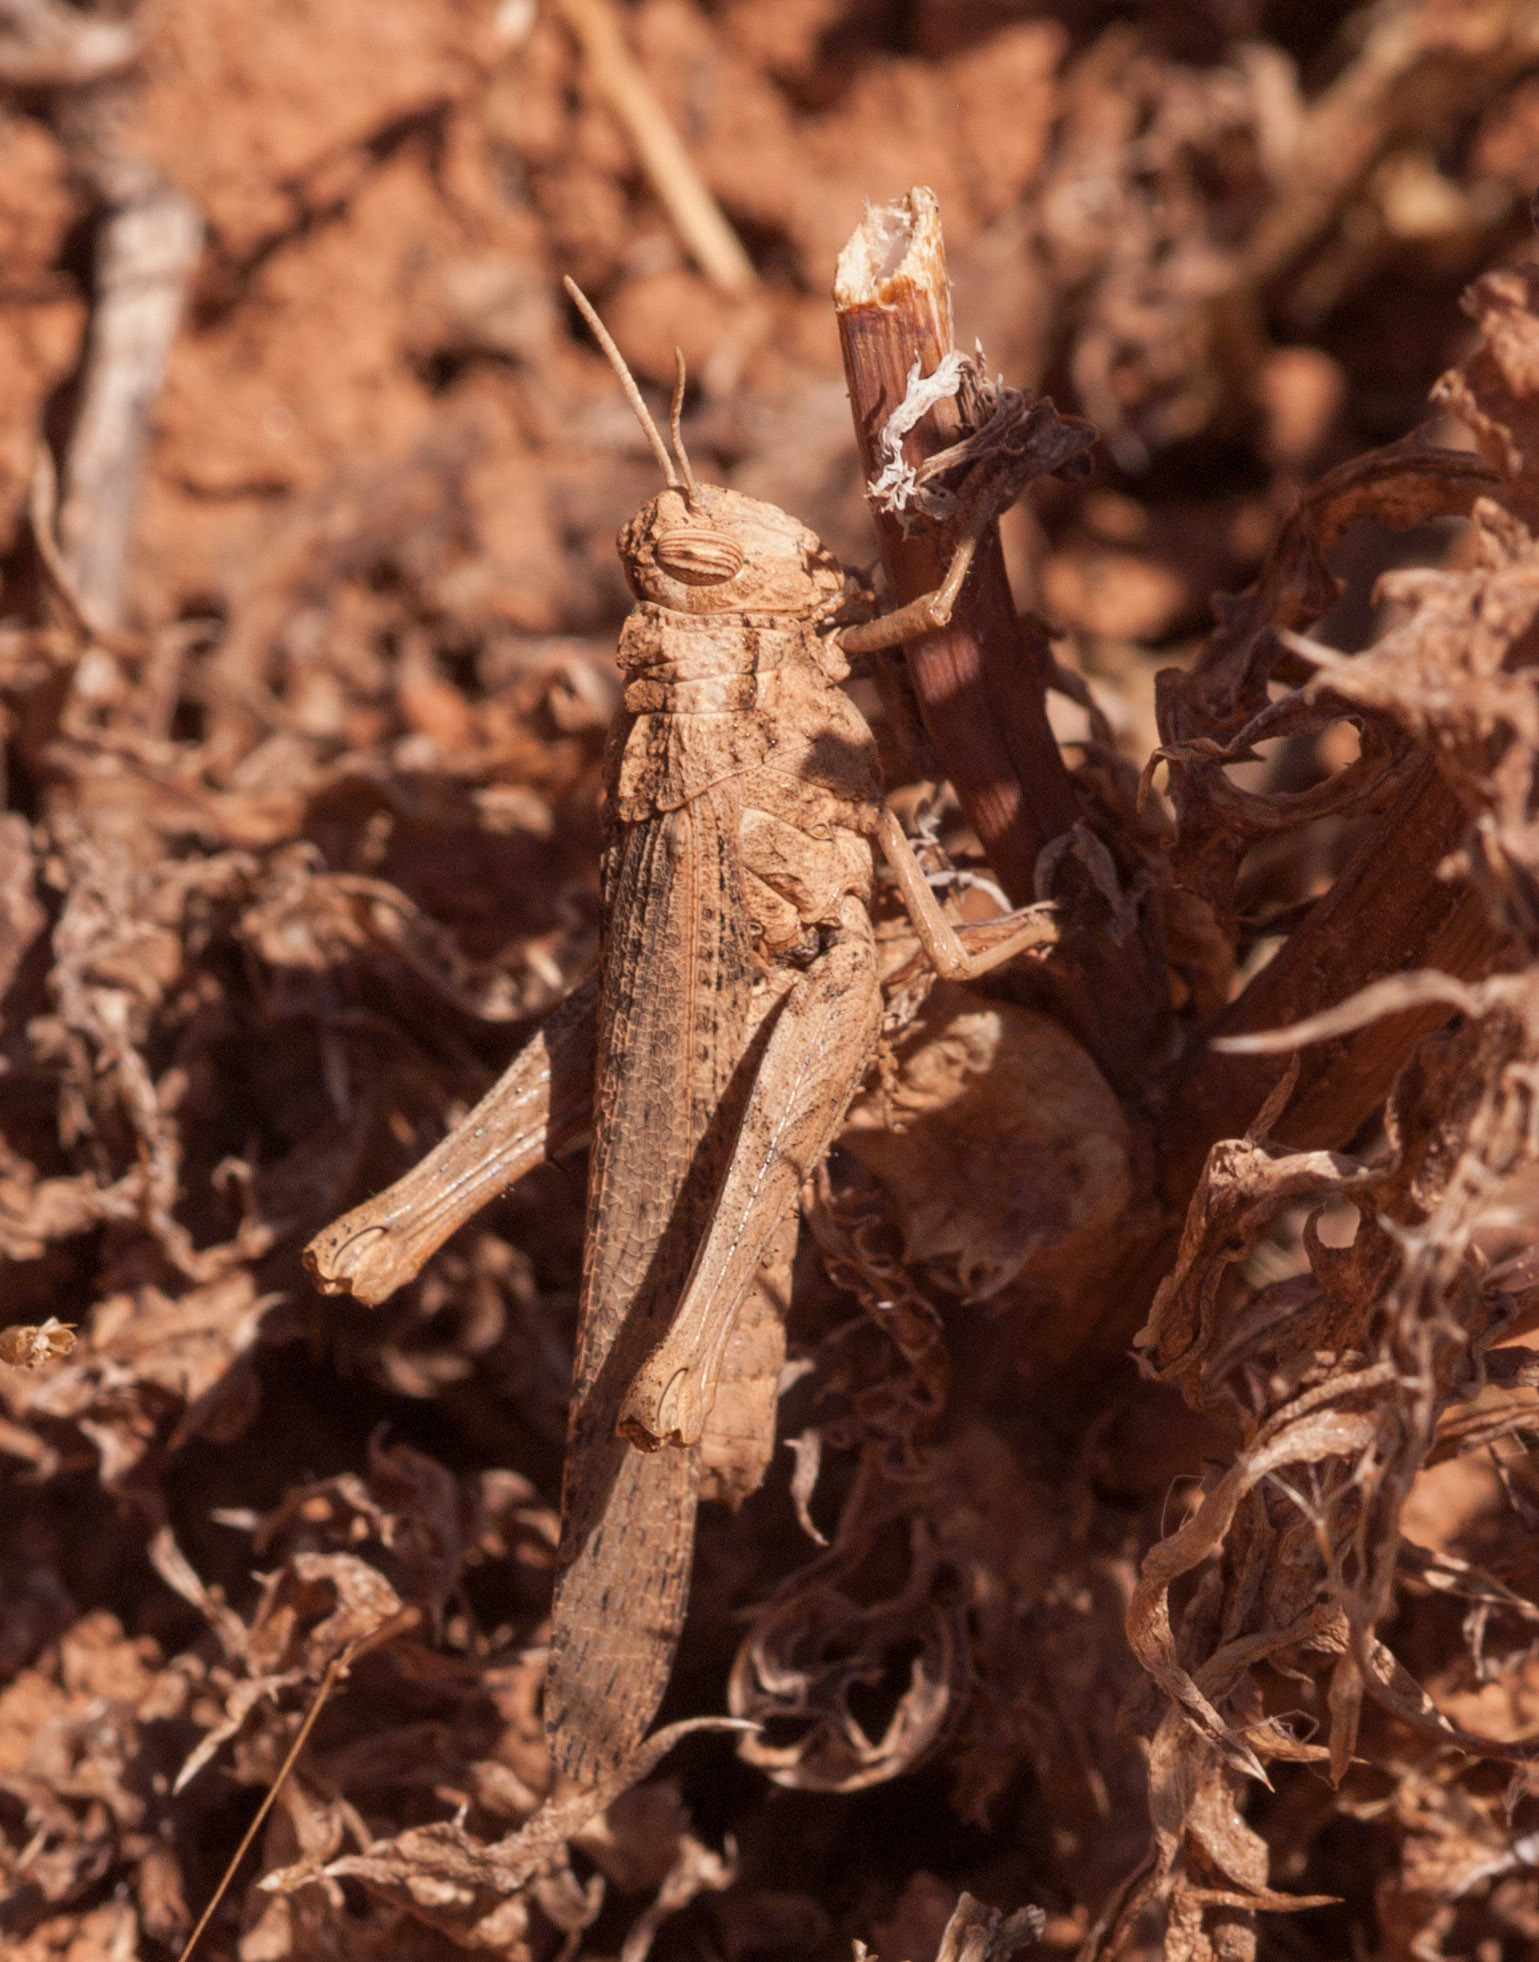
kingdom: Animalia
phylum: Arthropoda
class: Insecta
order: Orthoptera
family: Acrididae
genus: Macrolopholia
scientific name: Macrolopholia
